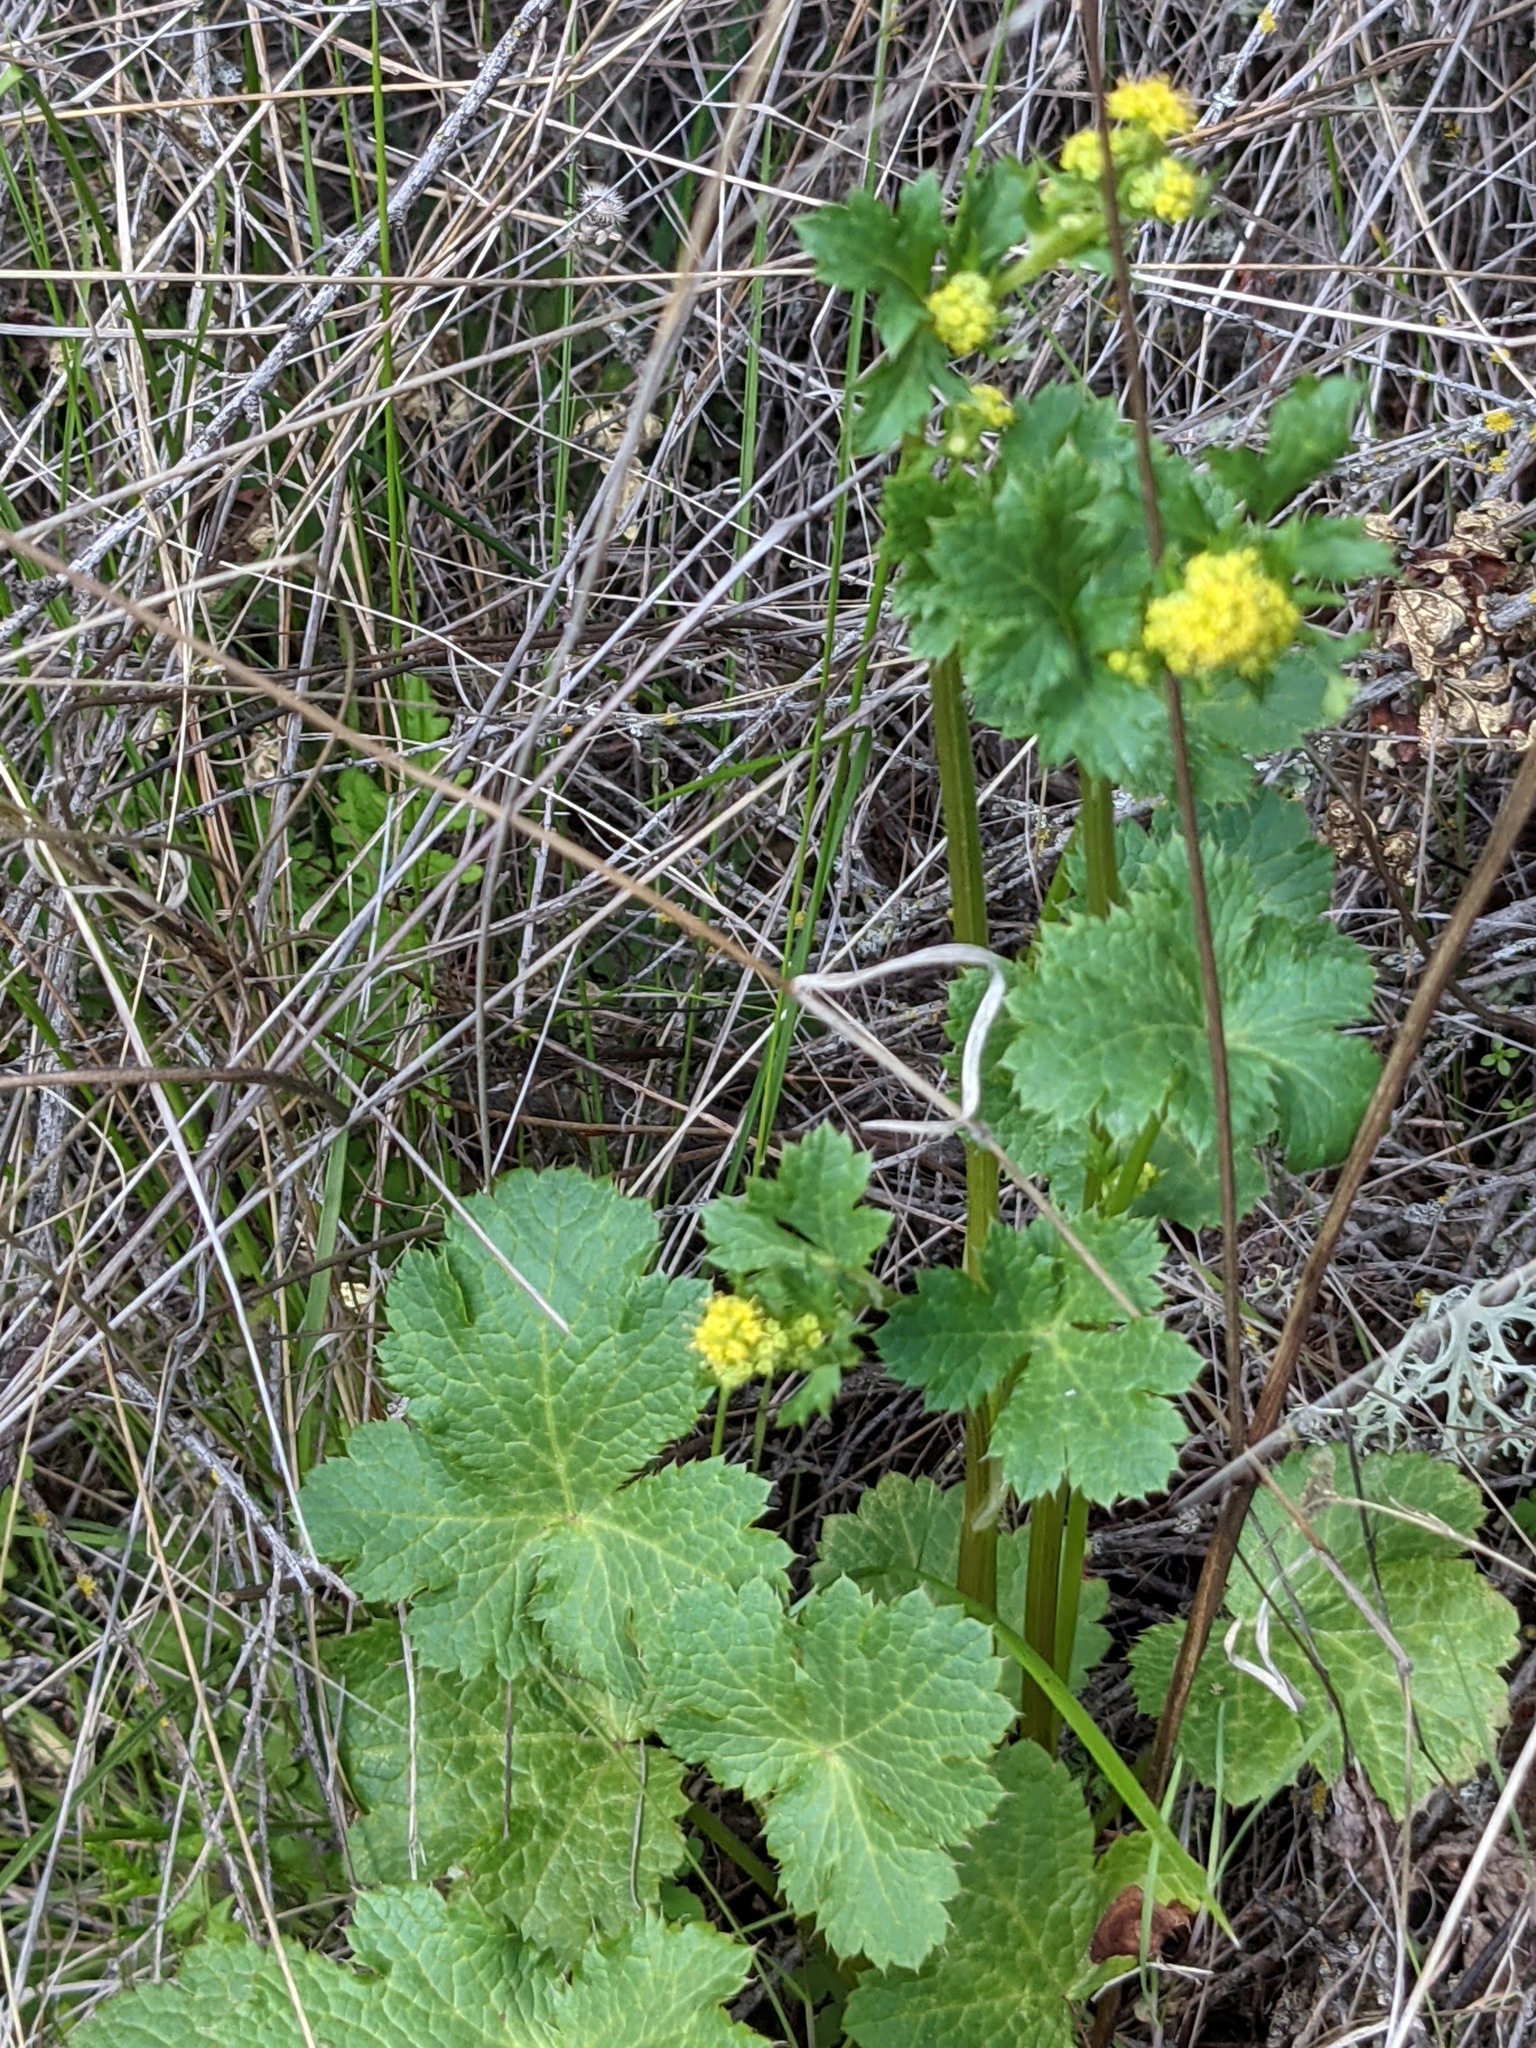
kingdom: Plantae
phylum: Tracheophyta
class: Magnoliopsida
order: Apiales
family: Apiaceae
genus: Sanicula
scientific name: Sanicula crassicaulis
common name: Western snakeroot
